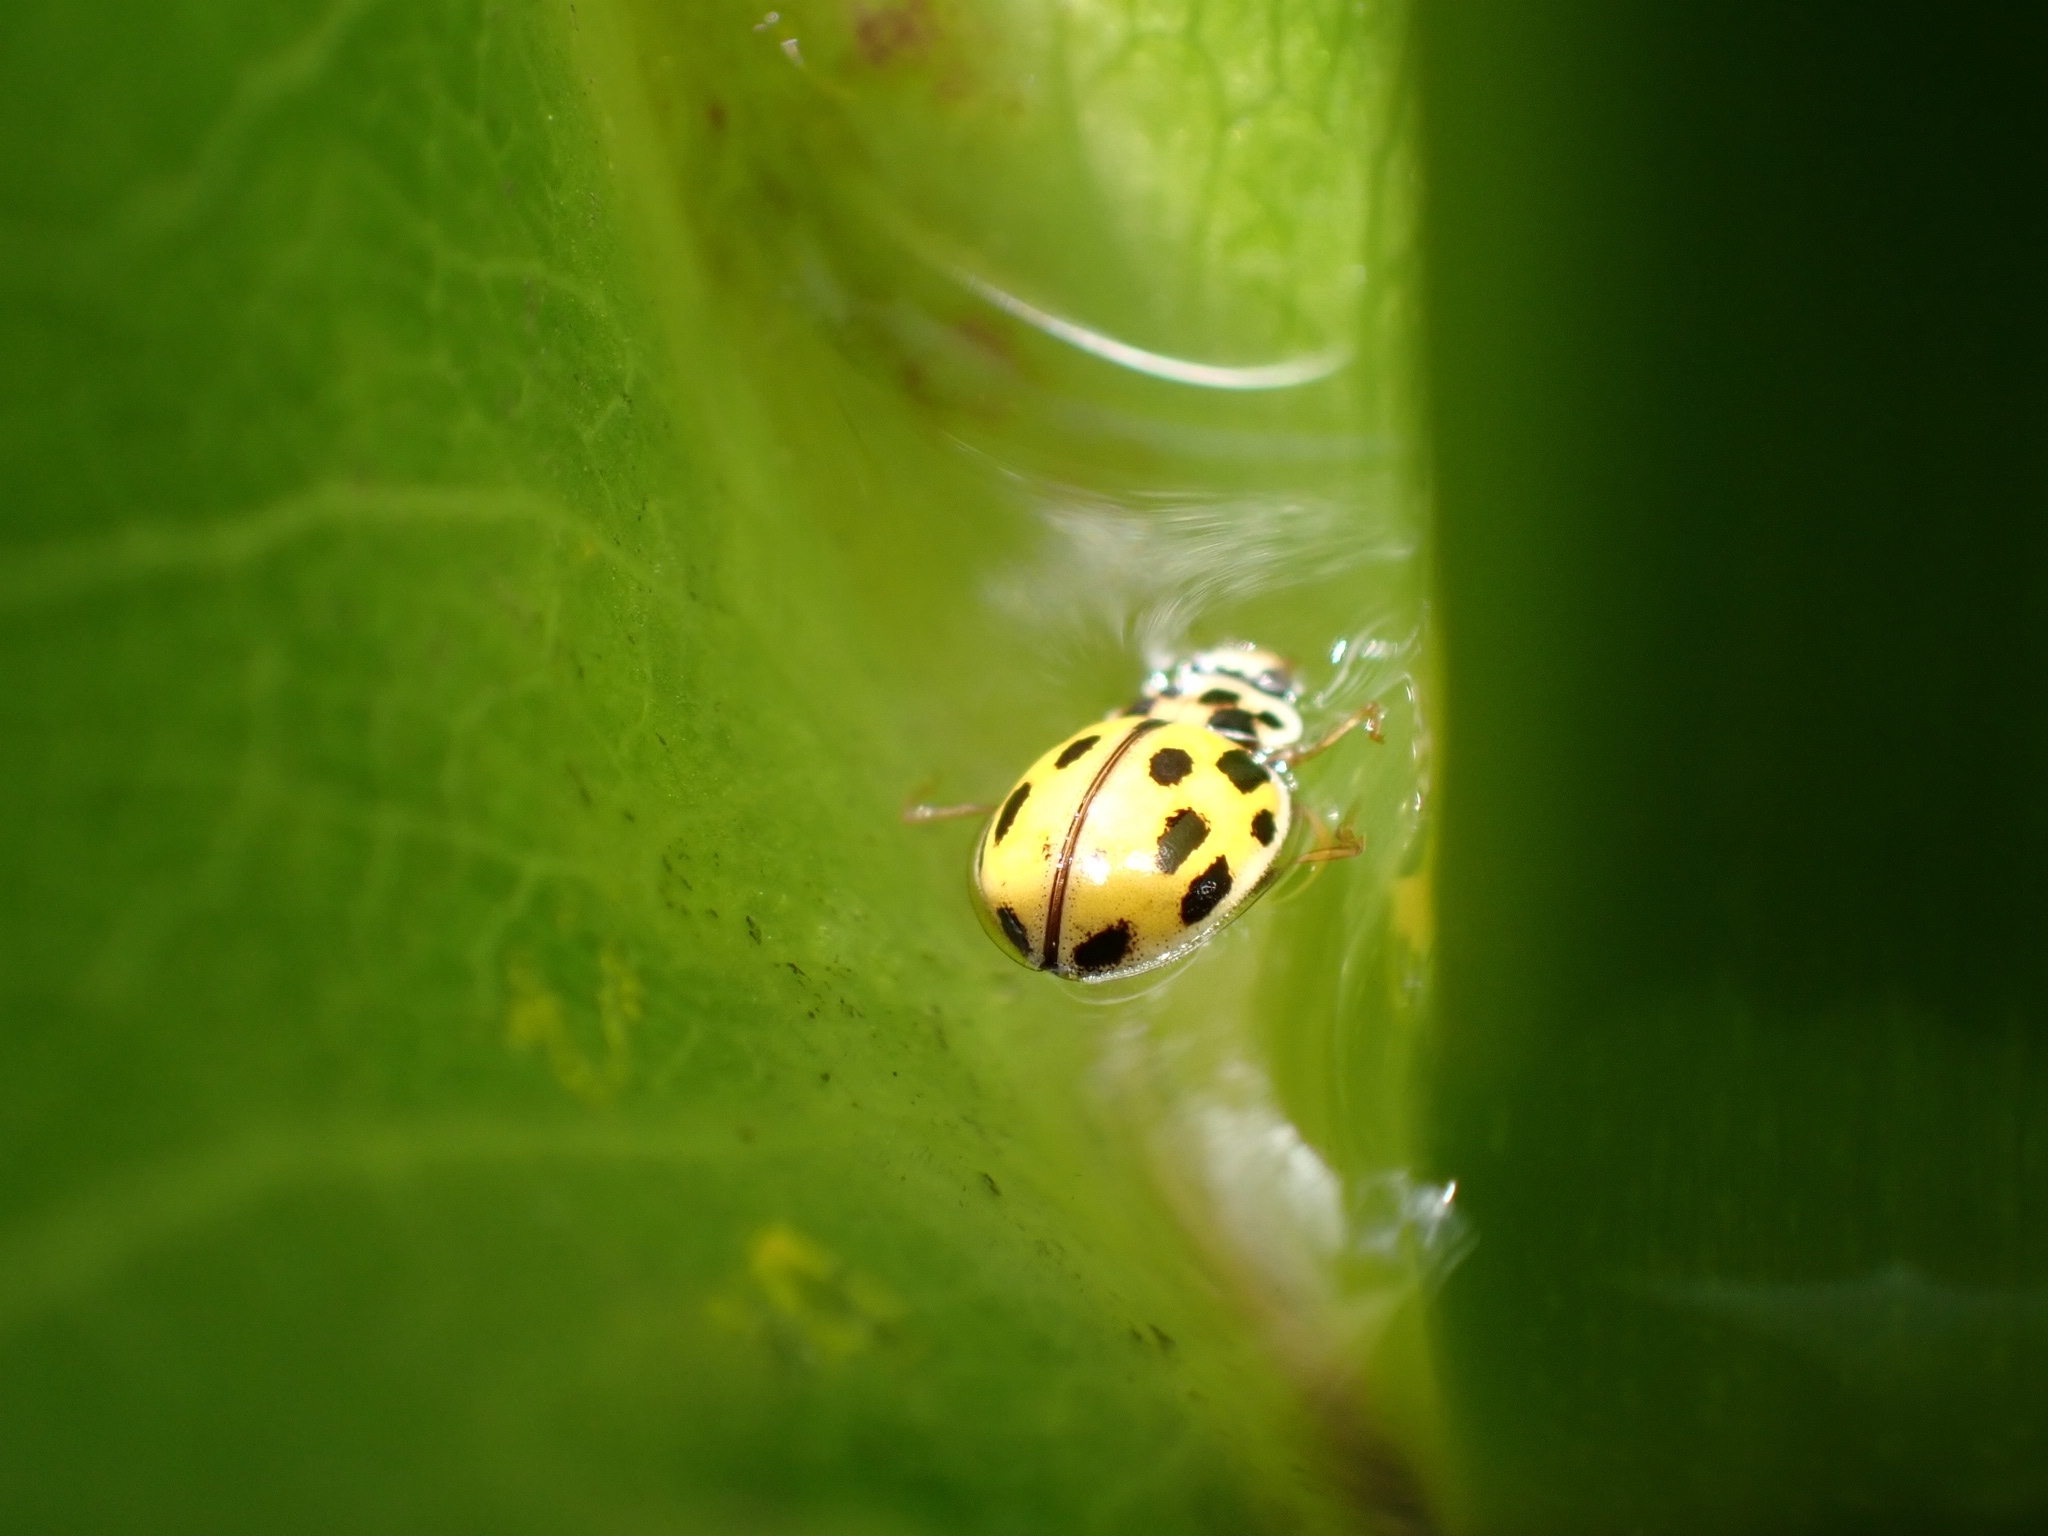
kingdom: Animalia
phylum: Arthropoda
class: Insecta
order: Coleoptera
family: Coccinellidae
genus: Propylaea
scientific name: Propylaea quatuordecimpunctata
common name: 14-spotted ladybird beetle
